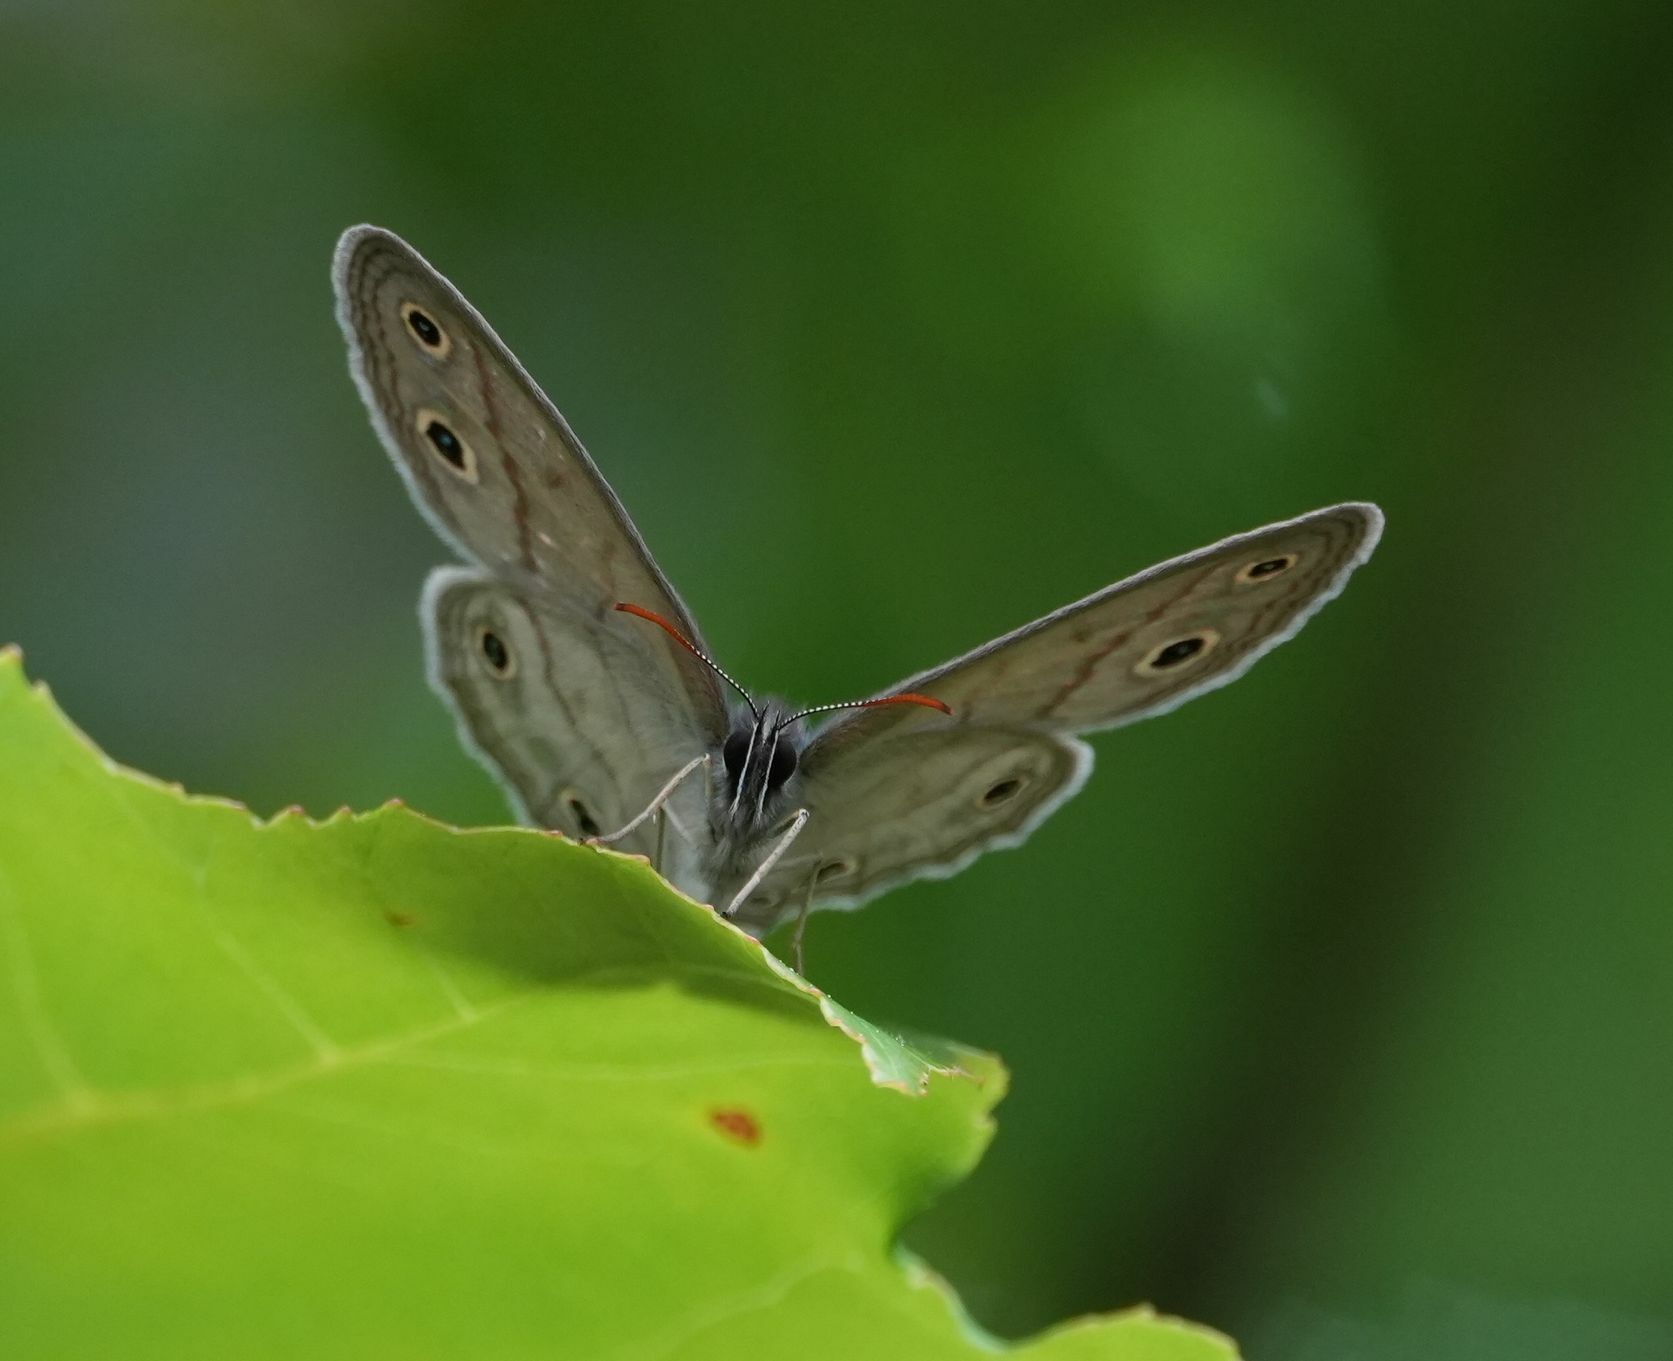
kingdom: Animalia
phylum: Arthropoda
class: Insecta
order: Lepidoptera
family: Nymphalidae
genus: Euptychia
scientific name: Euptychia cymela
